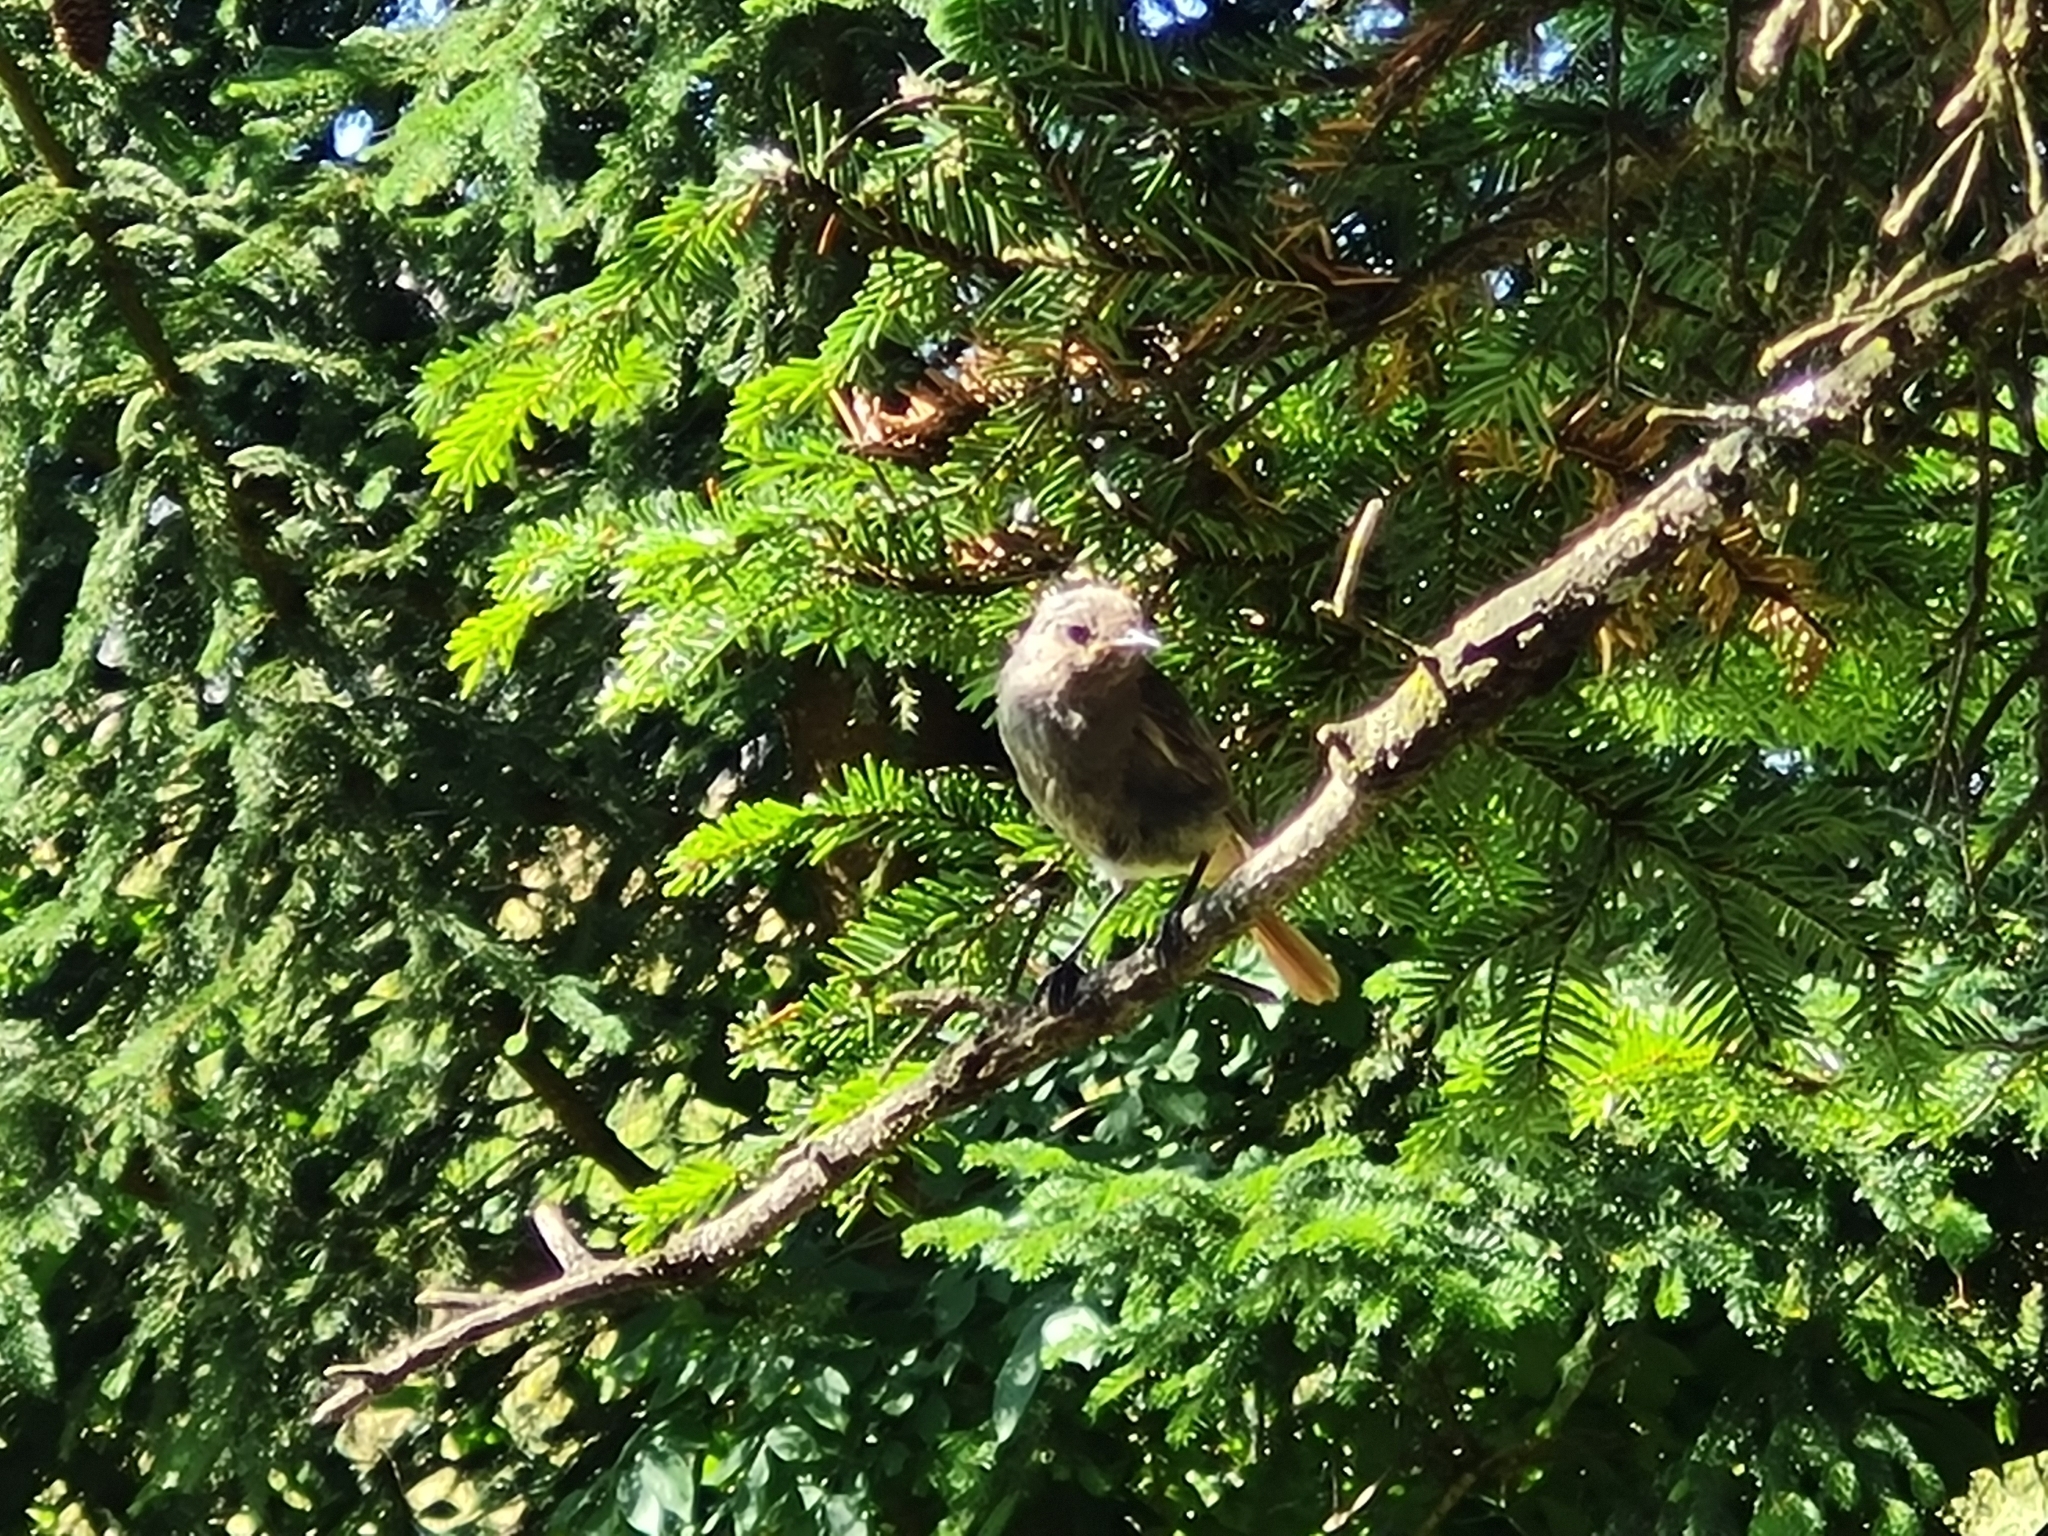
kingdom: Animalia
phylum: Chordata
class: Aves
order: Passeriformes
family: Muscicapidae
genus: Phoenicurus
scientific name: Phoenicurus ochruros
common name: Black redstart
